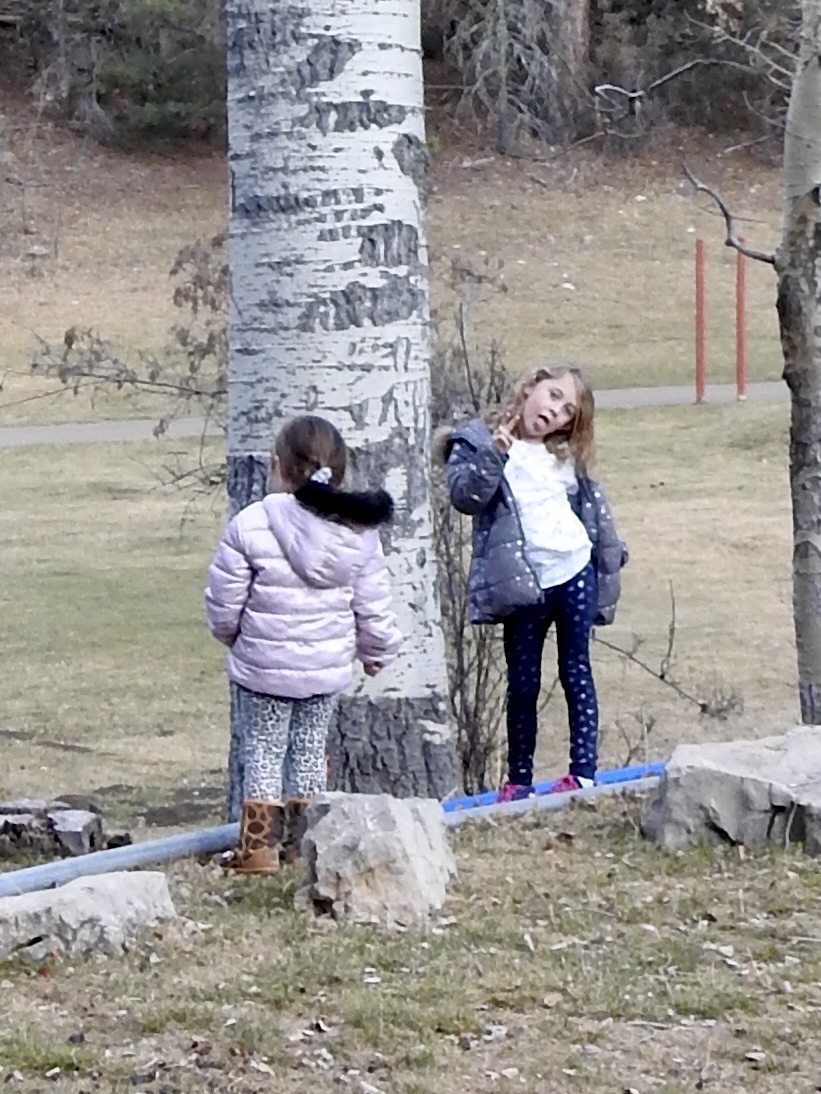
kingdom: Plantae
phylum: Tracheophyta
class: Magnoliopsida
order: Malpighiales
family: Salicaceae
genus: Populus
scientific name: Populus tremuloides
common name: Quaking aspen
